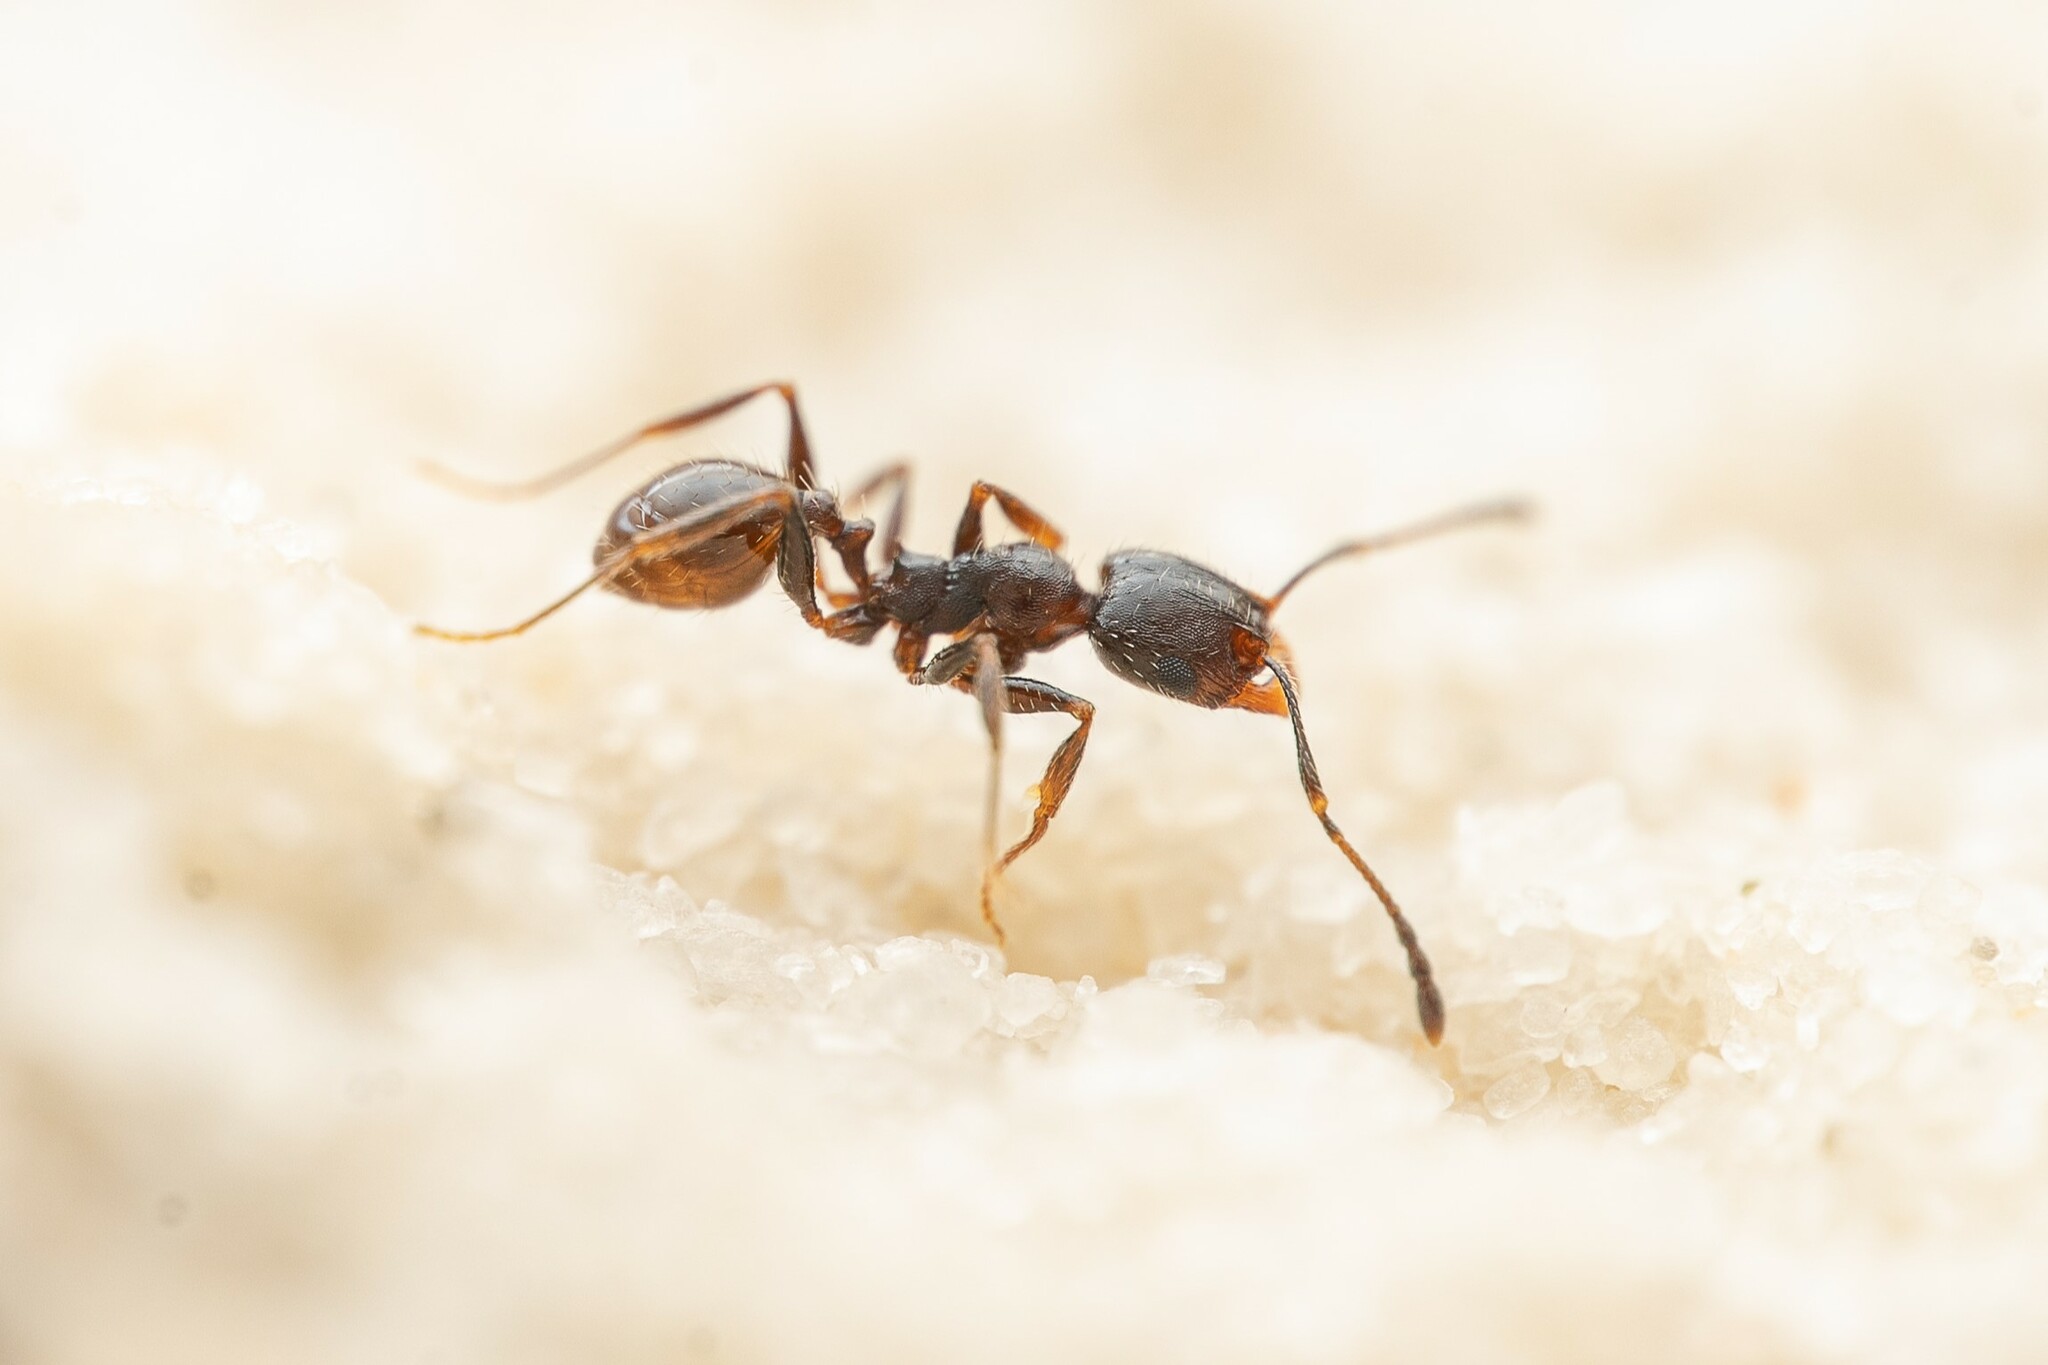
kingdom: Animalia
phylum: Arthropoda
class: Insecta
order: Hymenoptera
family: Formicidae
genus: Pheidole
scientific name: Pheidole pilifera
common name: Hairy big-headed ant
